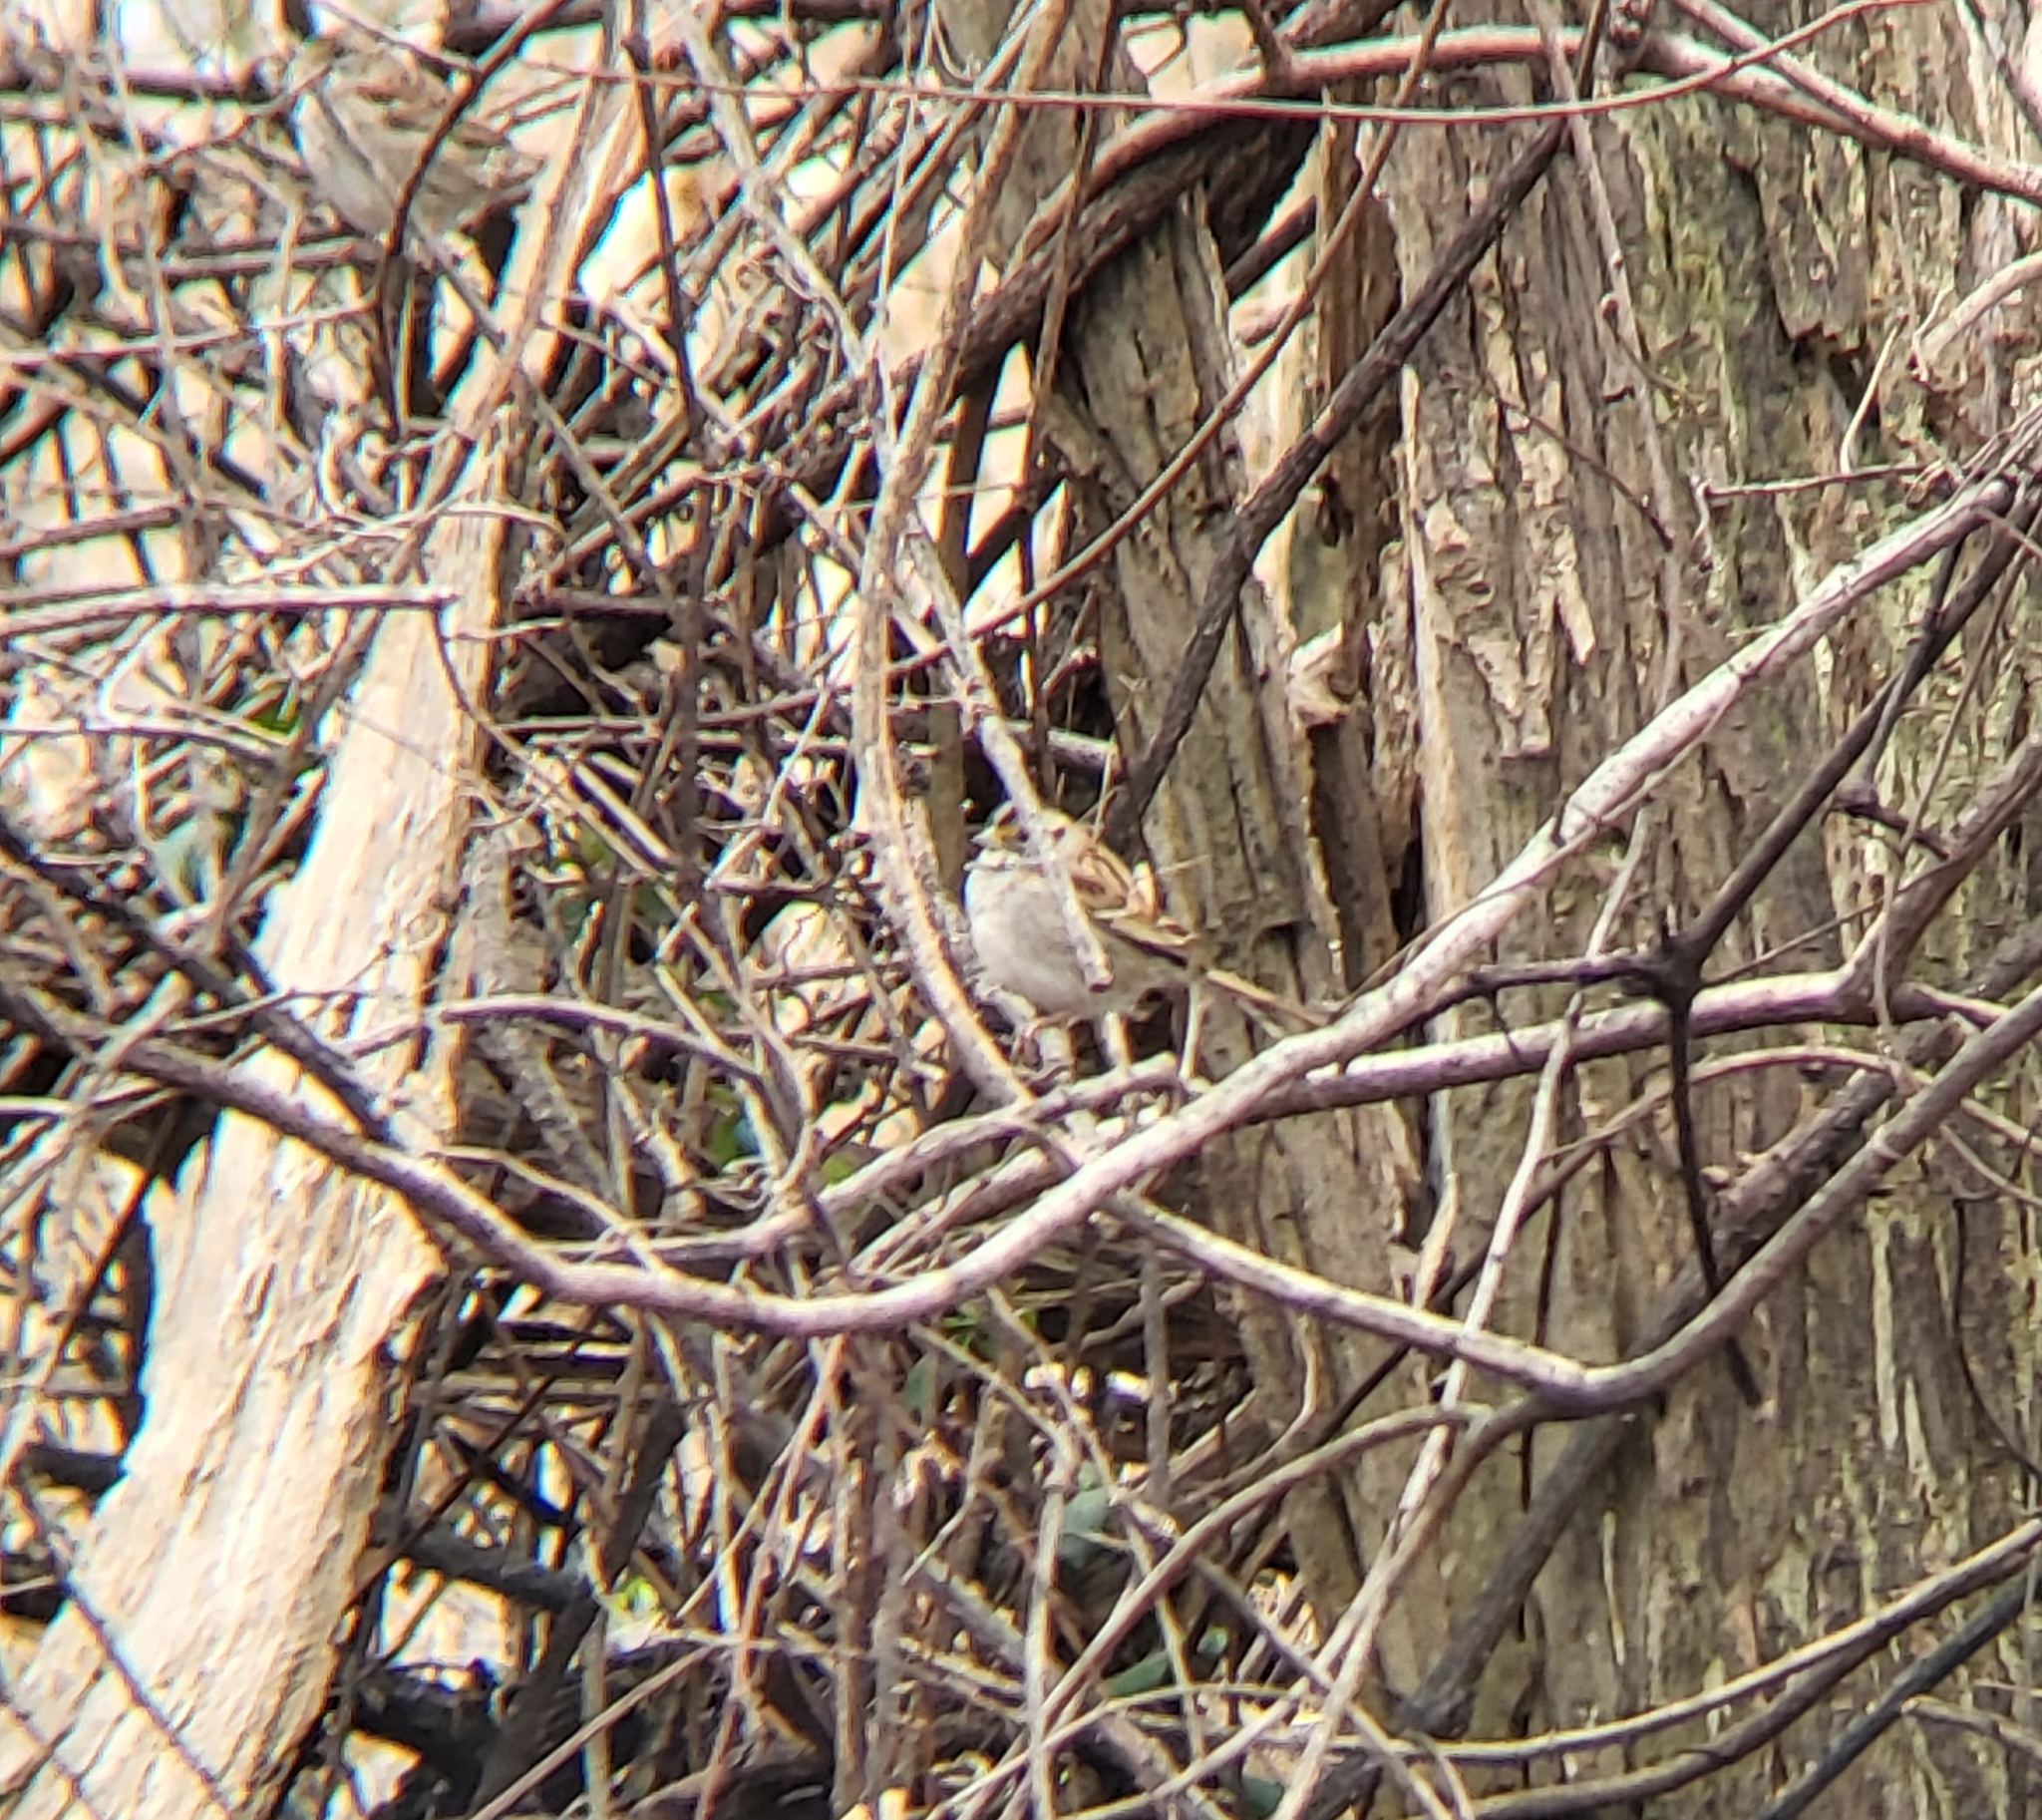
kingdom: Animalia
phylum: Chordata
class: Aves
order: Passeriformes
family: Passerellidae
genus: Zonotrichia
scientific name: Zonotrichia albicollis
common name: White-throated sparrow
